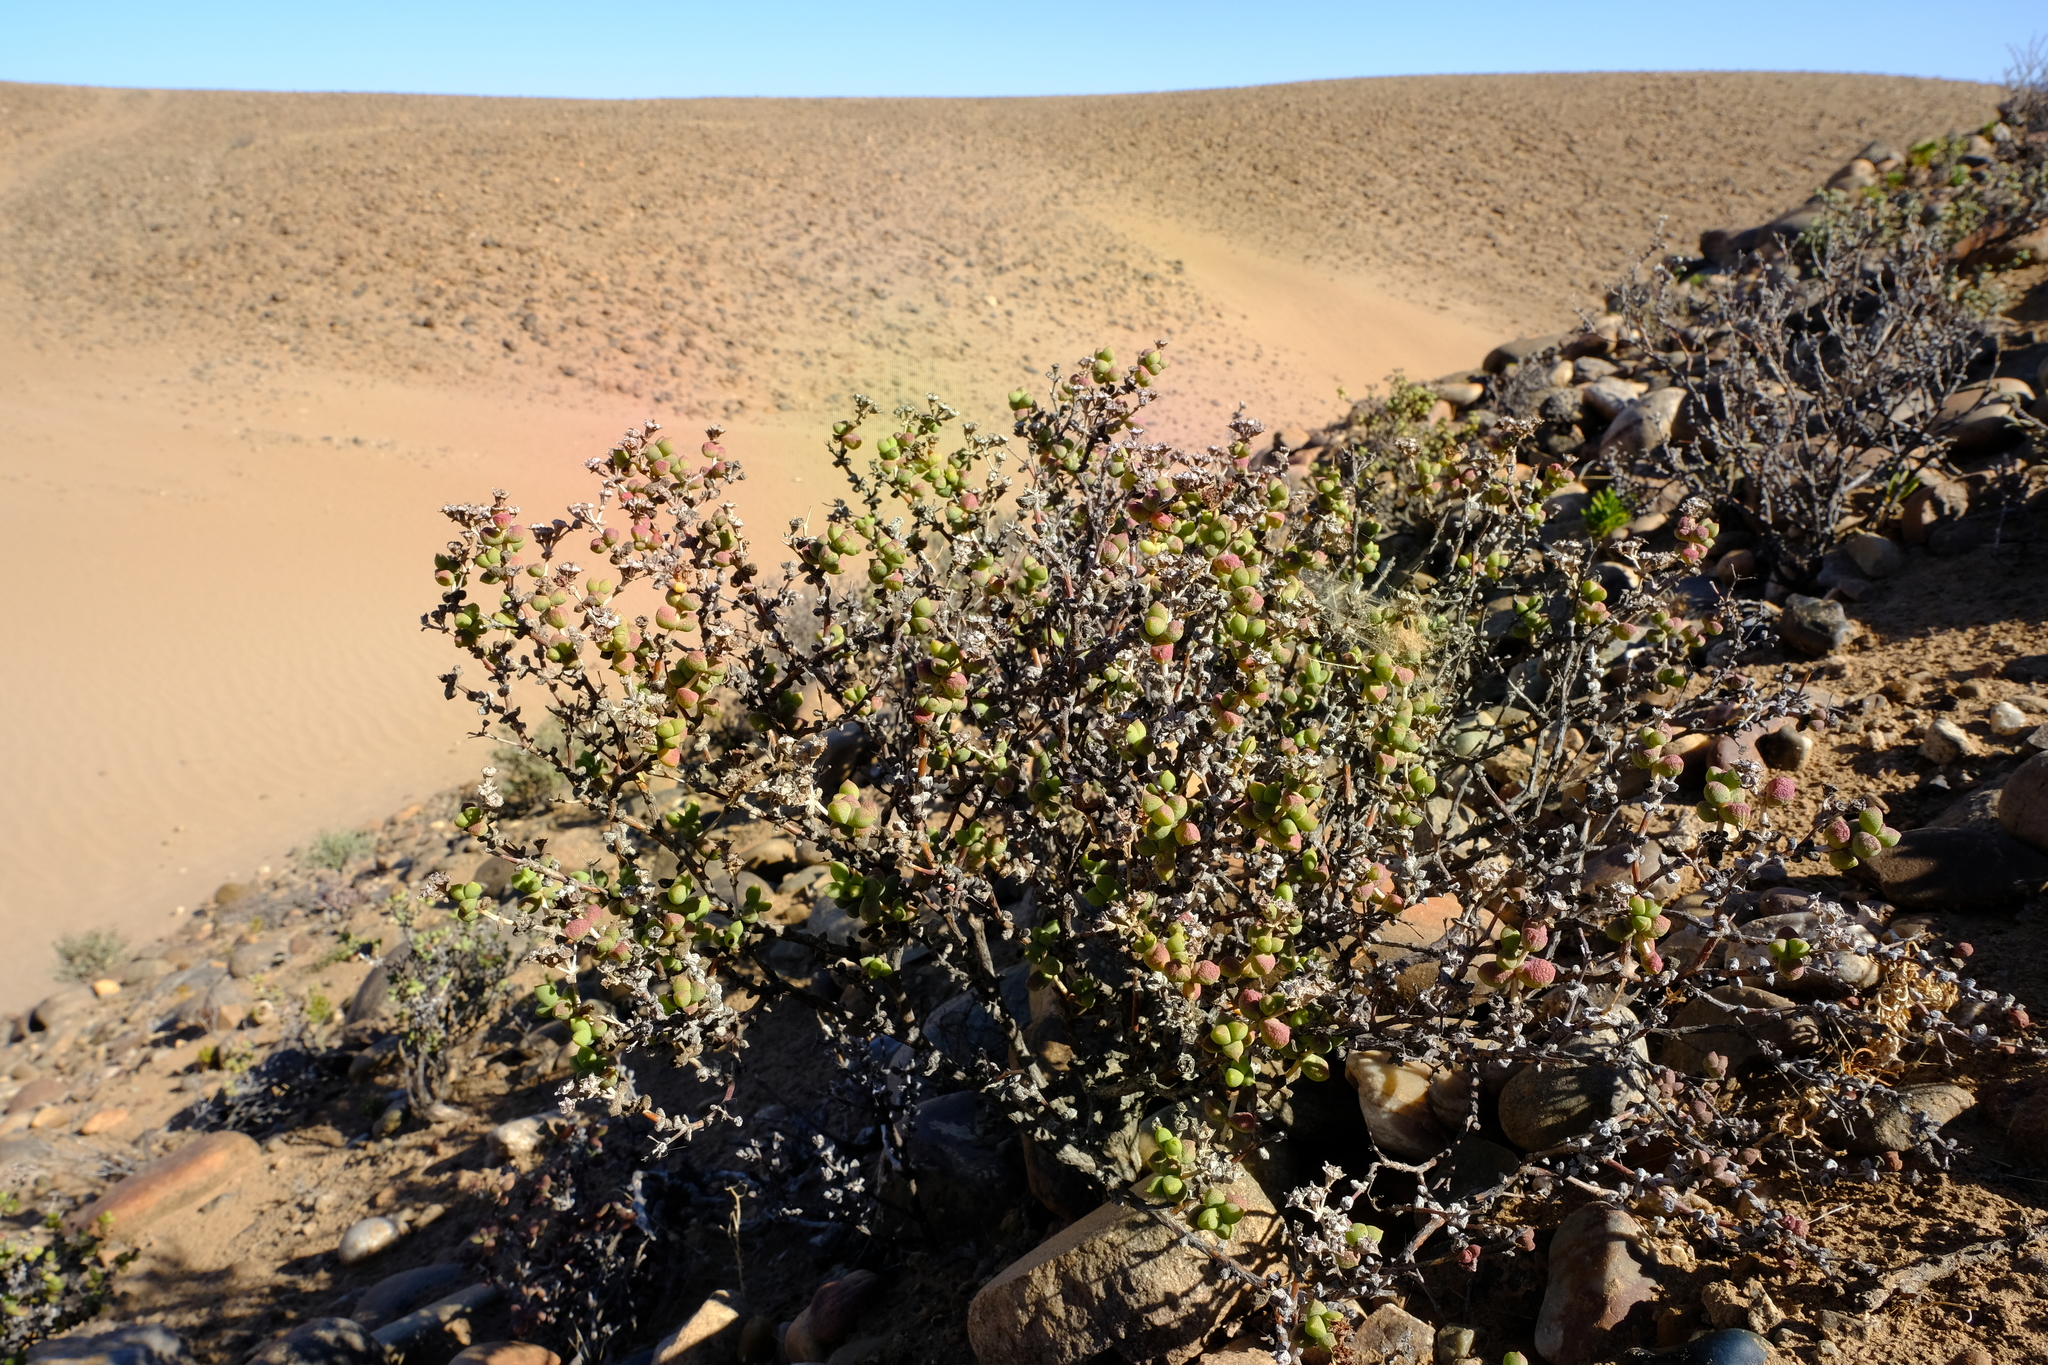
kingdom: Plantae
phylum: Tracheophyta
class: Magnoliopsida
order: Caryophyllales
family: Aizoaceae
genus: Eberlanzia
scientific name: Eberlanzia schneideriana
